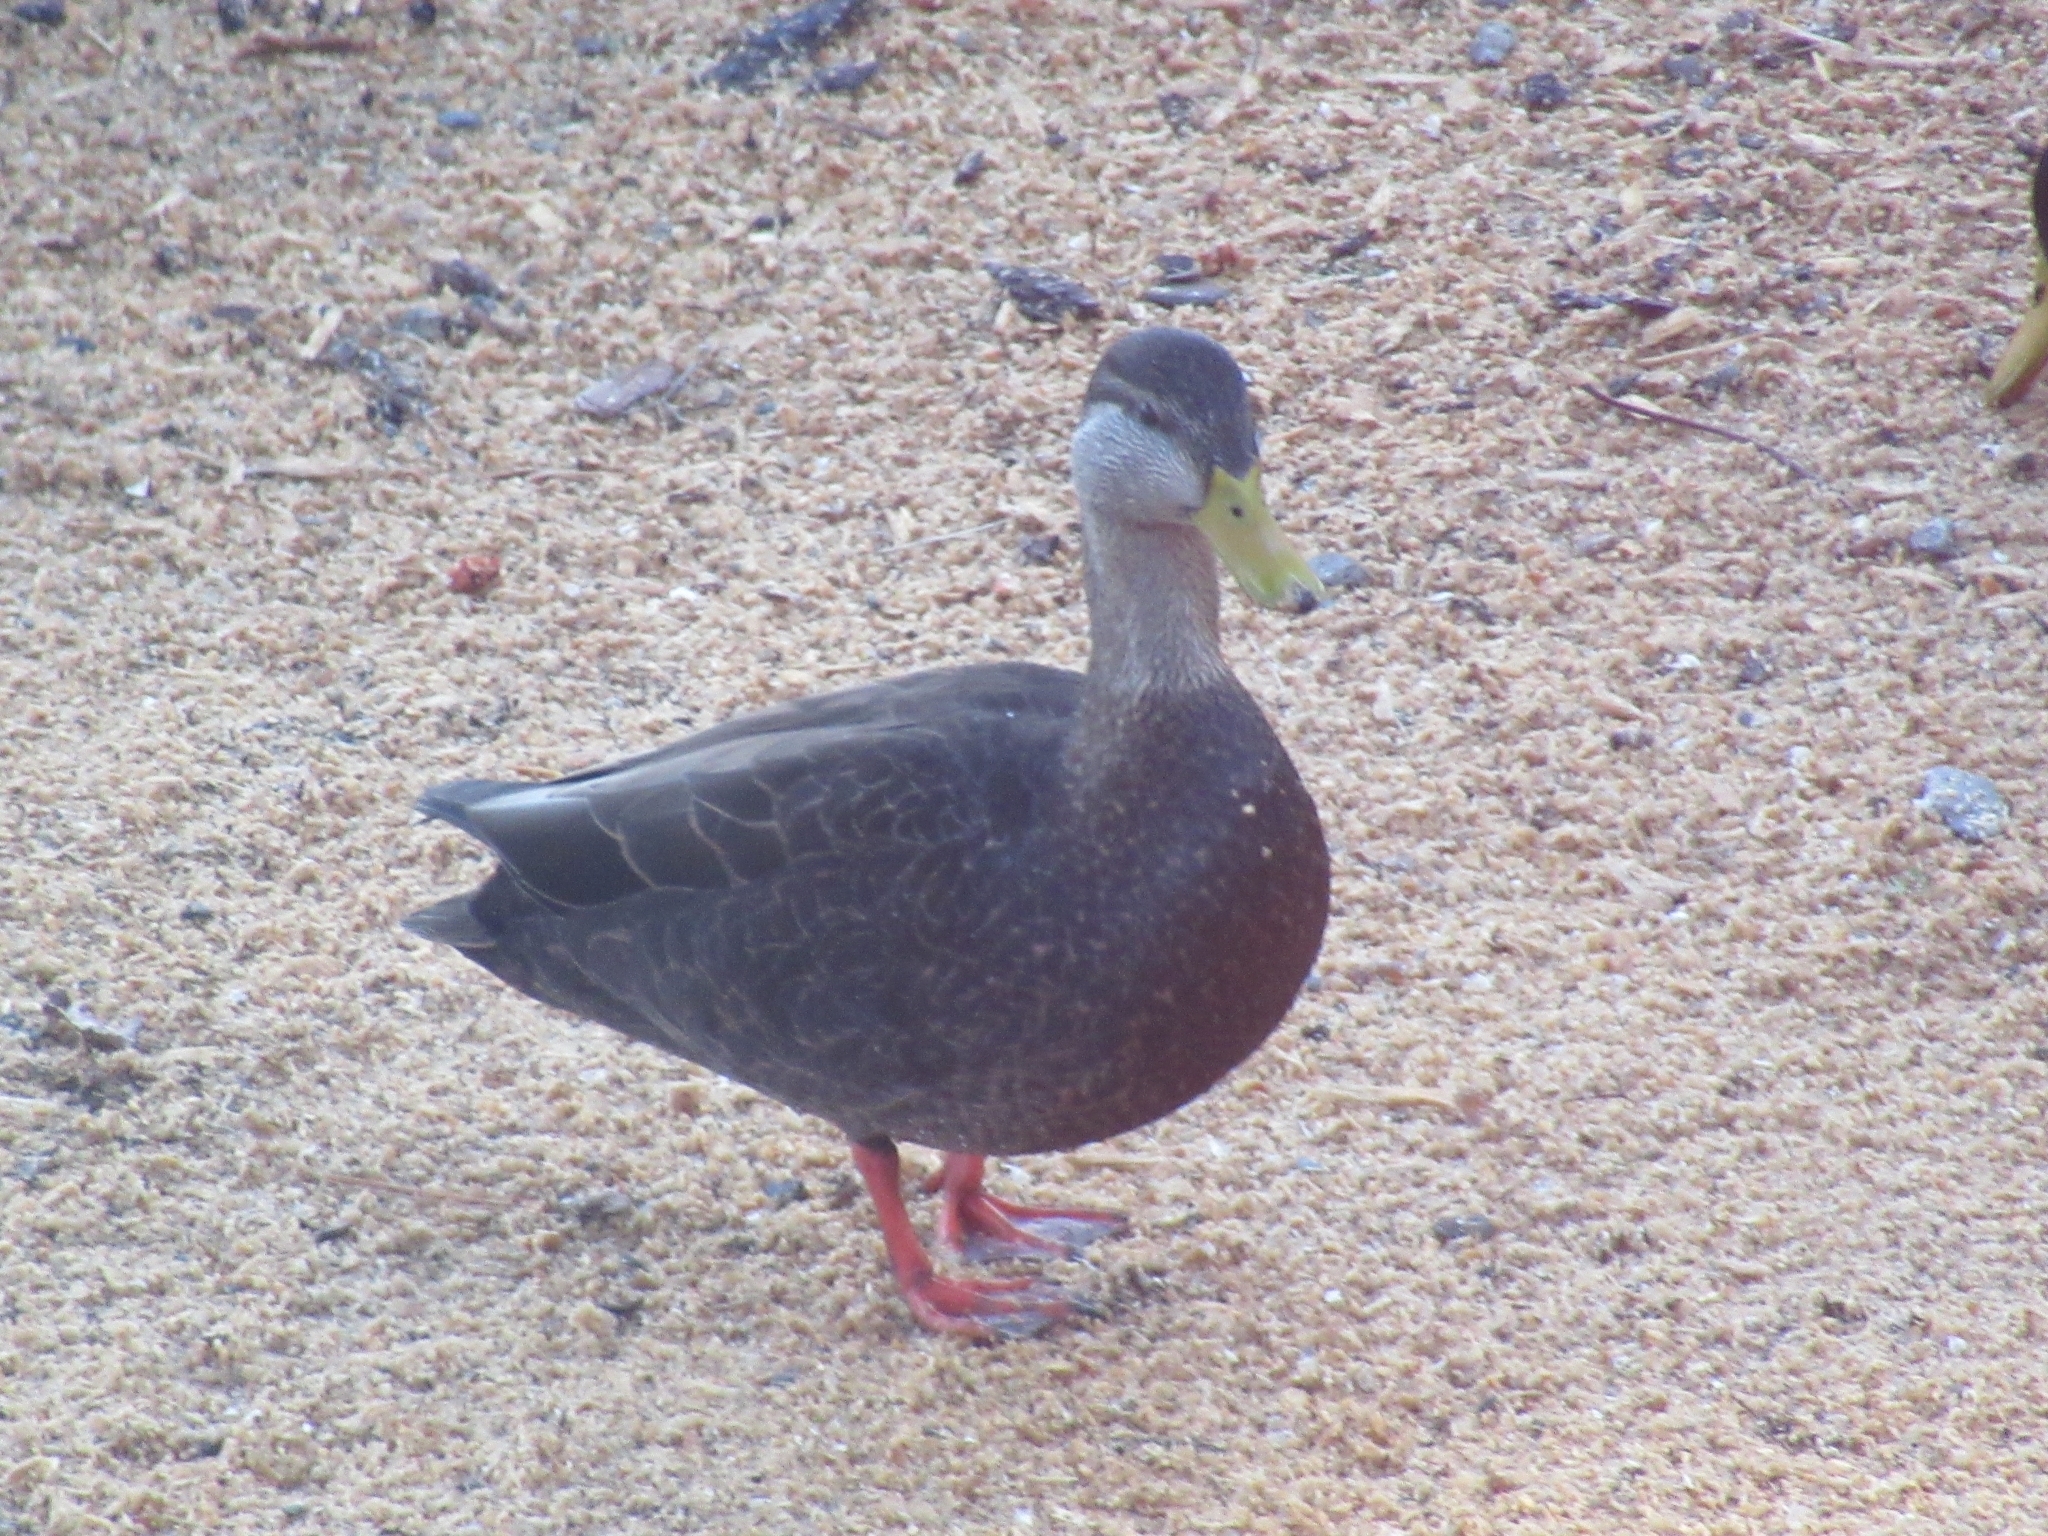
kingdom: Animalia
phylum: Chordata
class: Aves
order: Anseriformes
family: Anatidae
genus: Anas
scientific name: Anas rubripes
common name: American black duck
